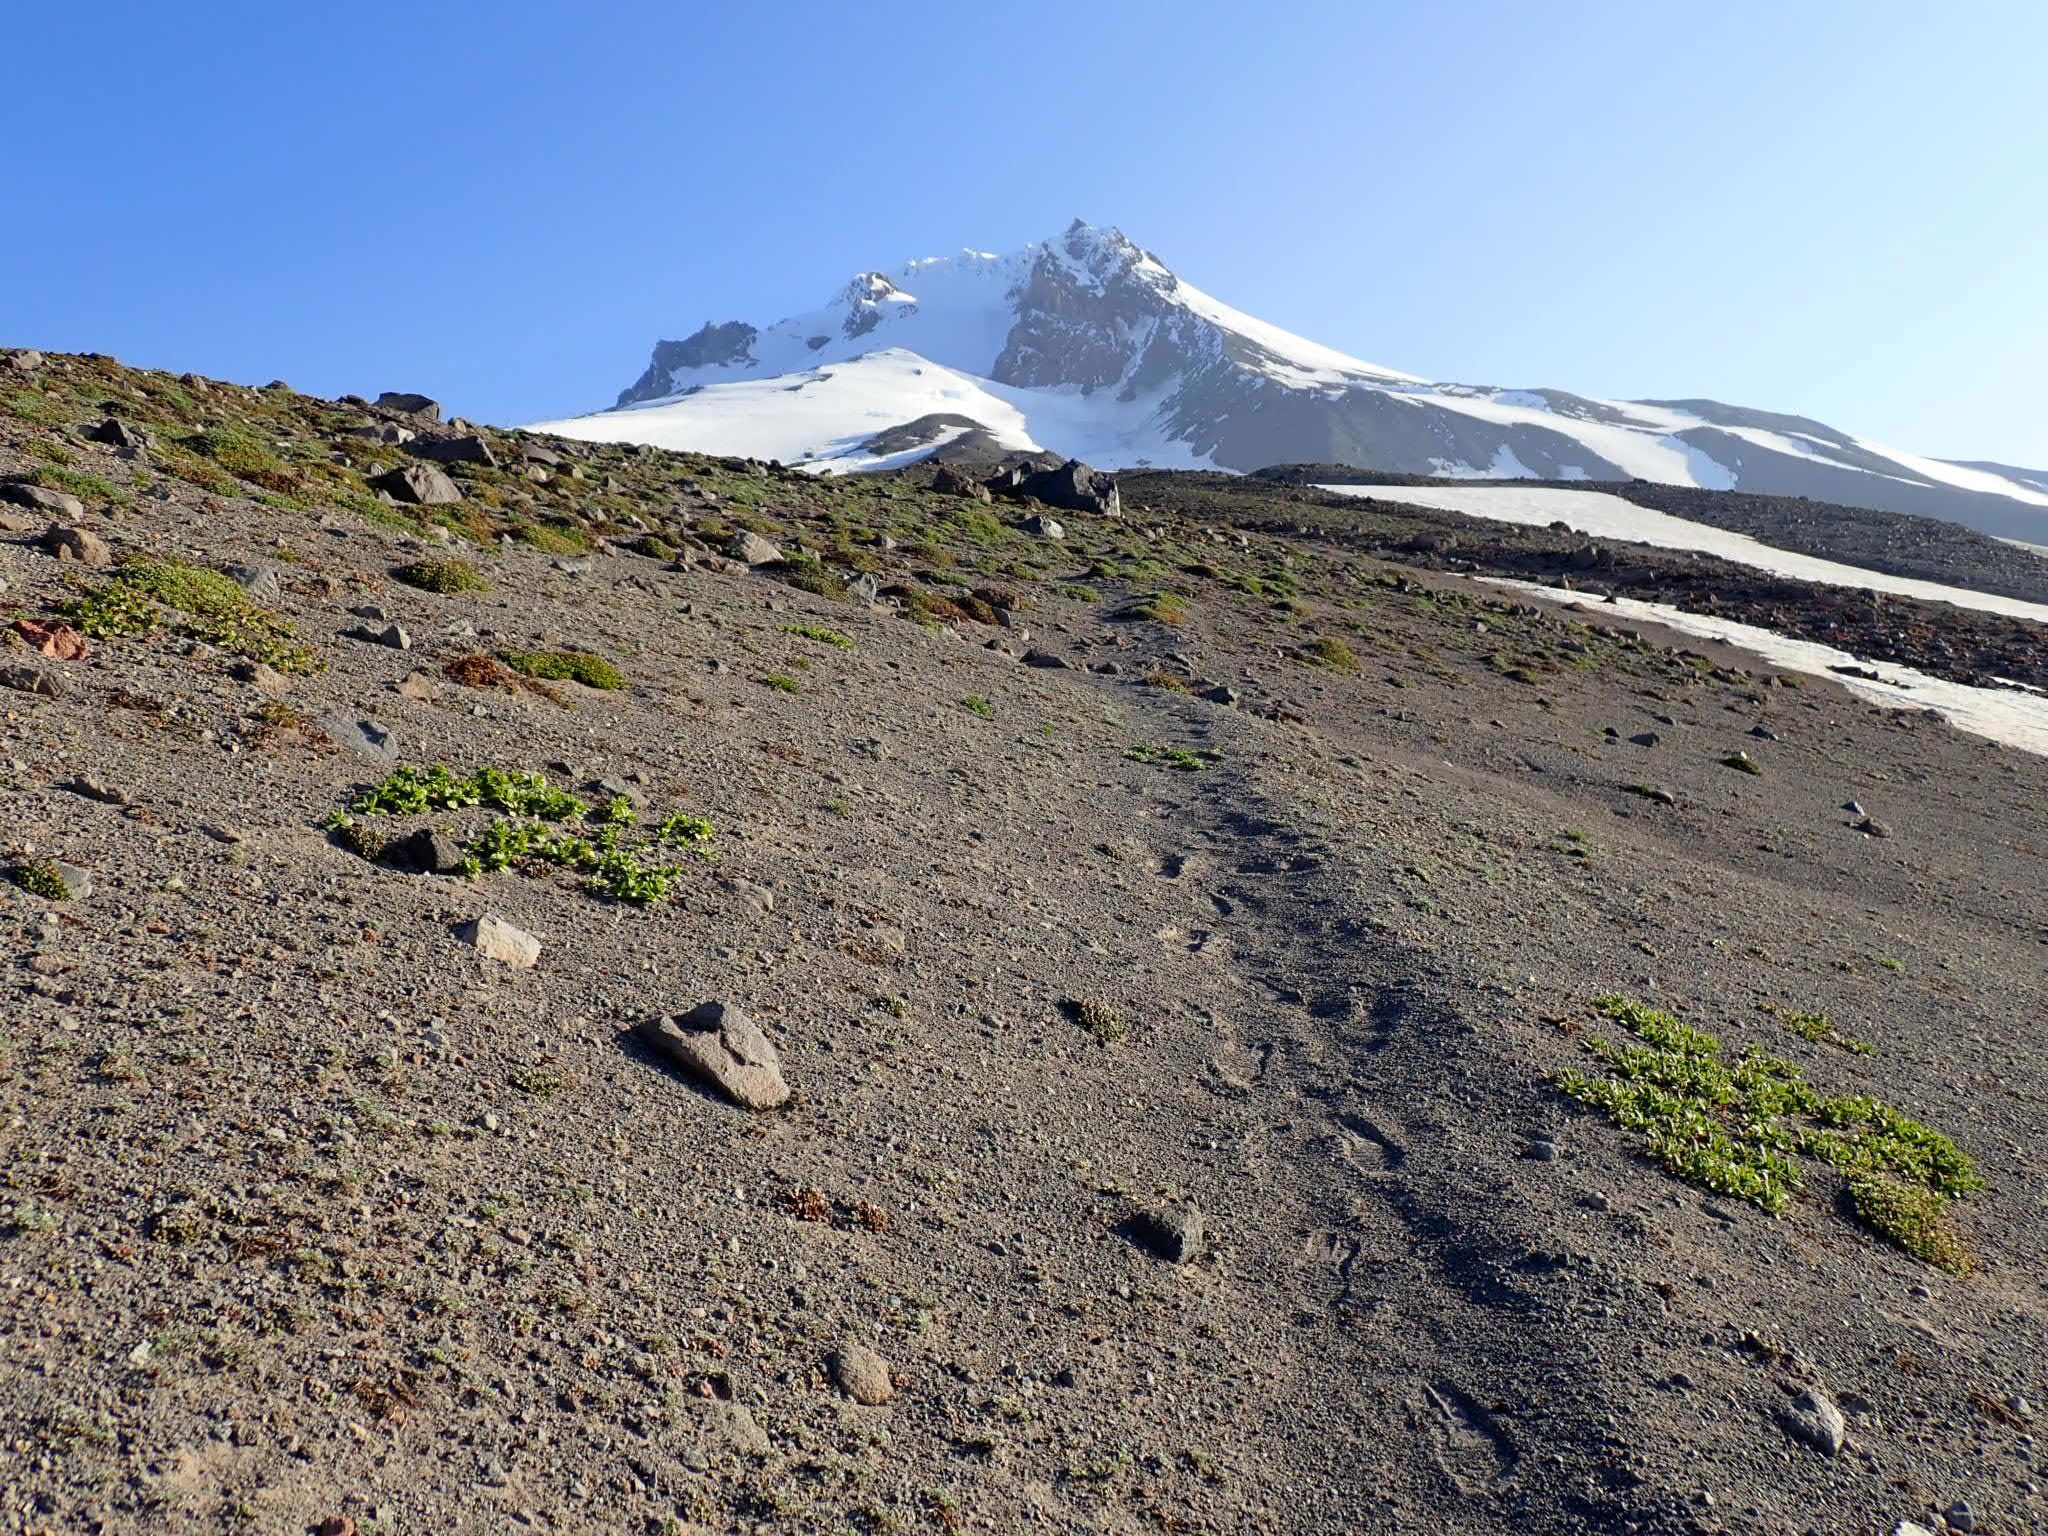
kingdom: Plantae
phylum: Tracheophyta
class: Magnoliopsida
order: Fabales
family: Fabaceae
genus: Lupinus
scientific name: Lupinus lepidus
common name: Prairie lupine
